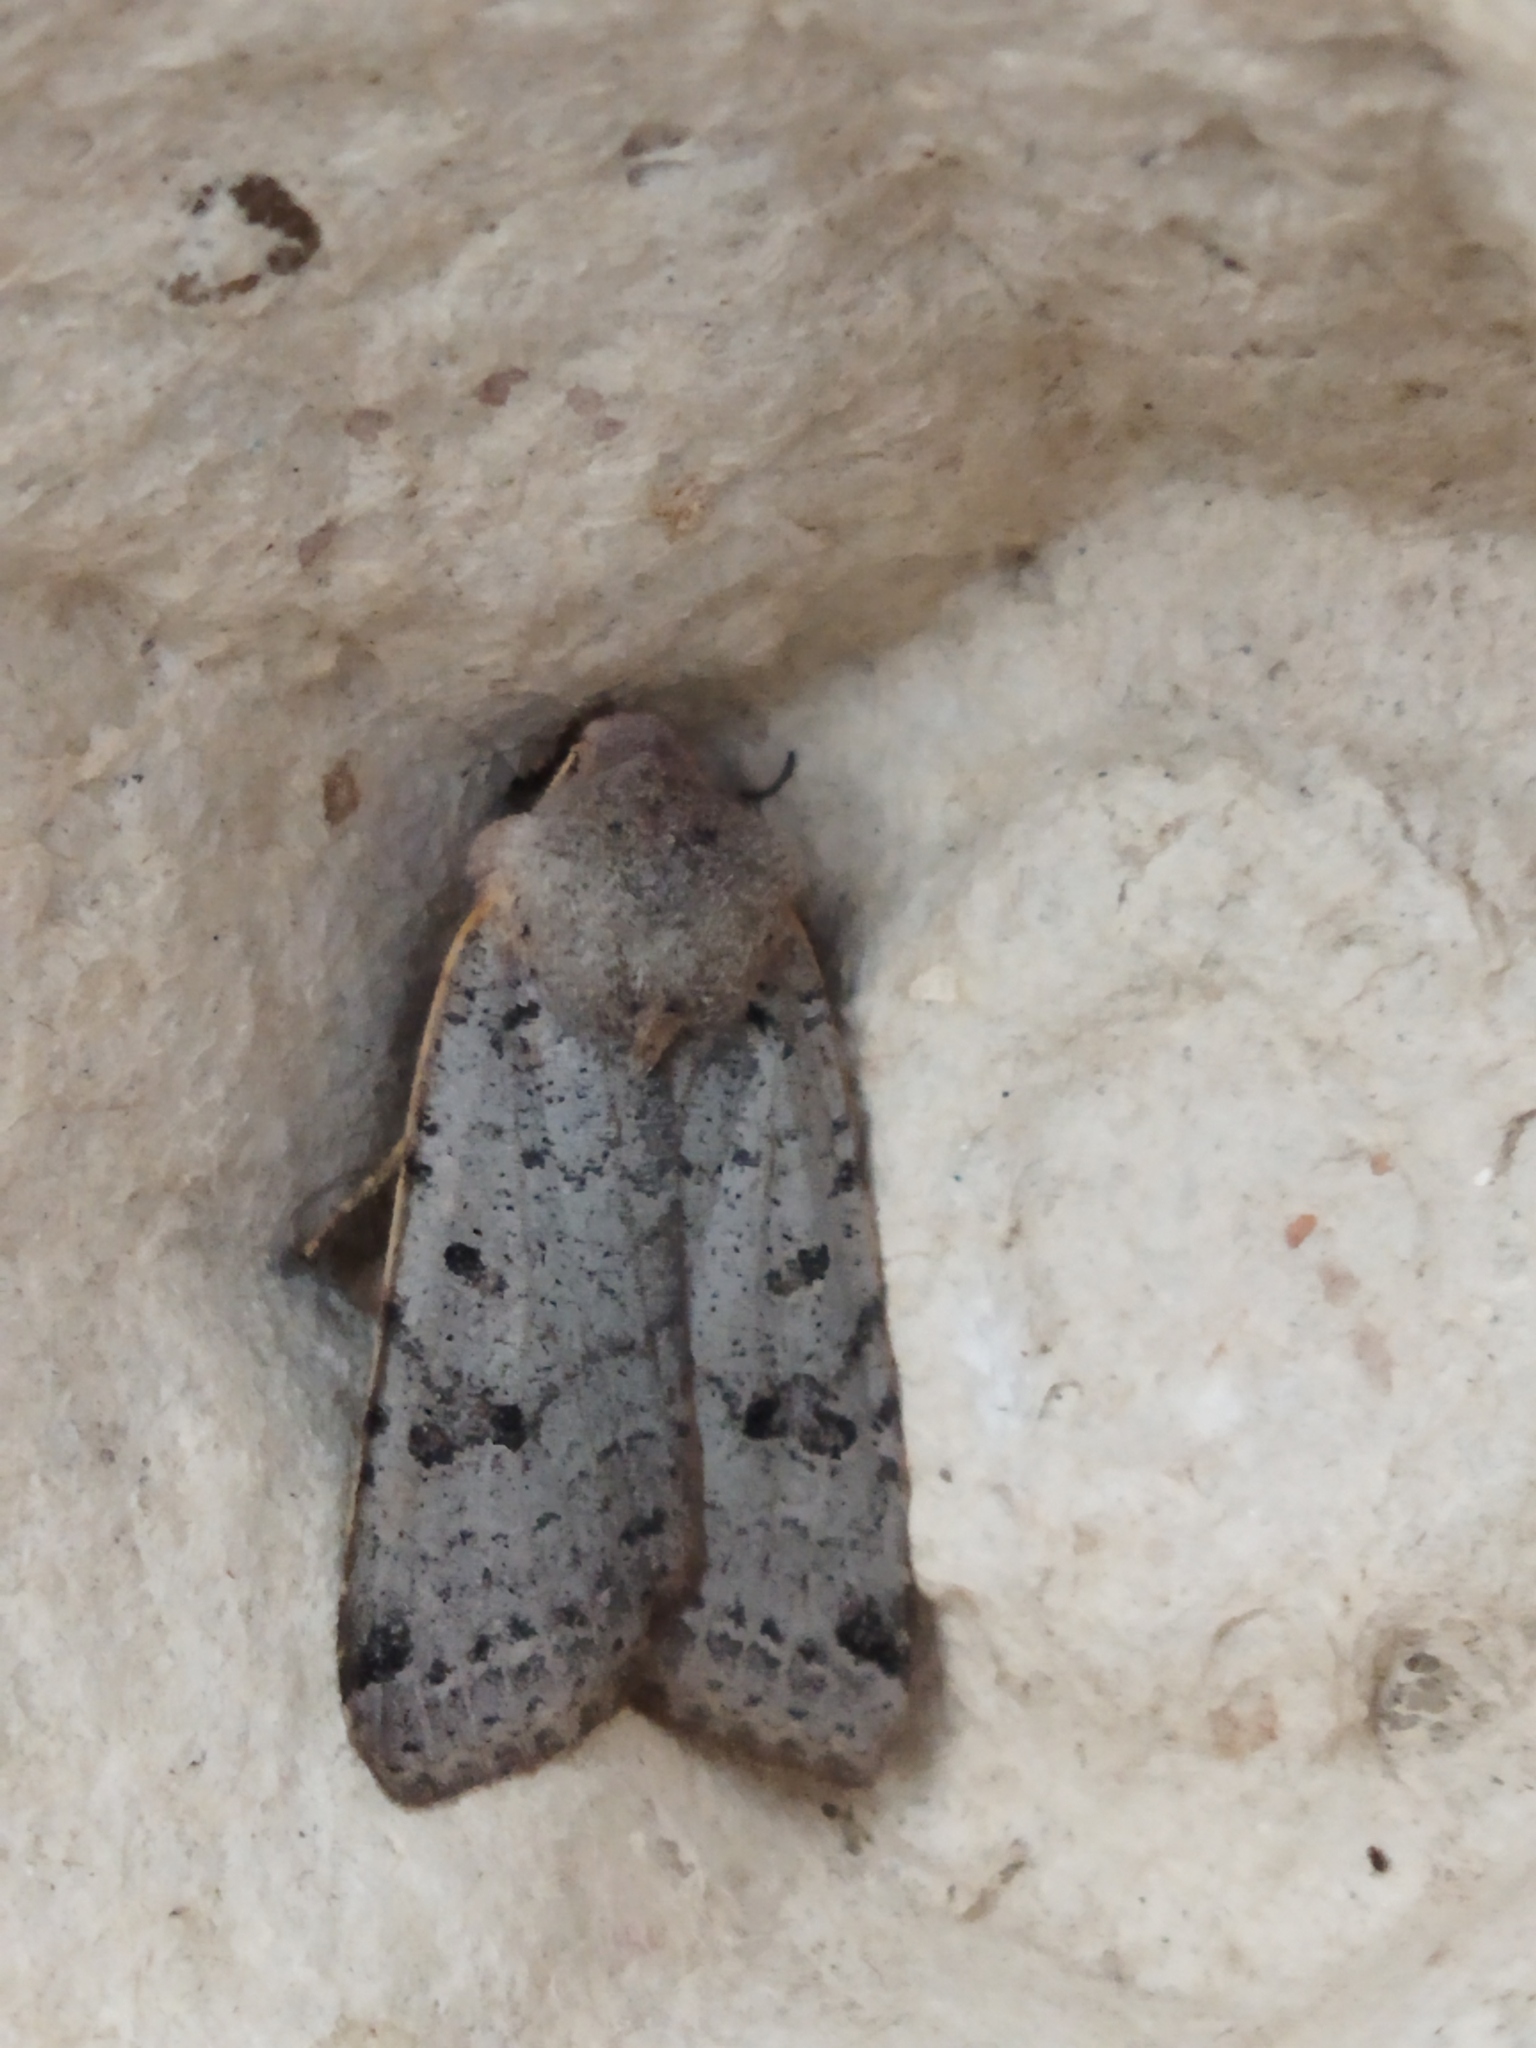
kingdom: Animalia
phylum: Arthropoda
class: Insecta
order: Lepidoptera
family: Noctuidae
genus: Agrochola
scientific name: Agrochola lychnidis
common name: Beaded chestnut
